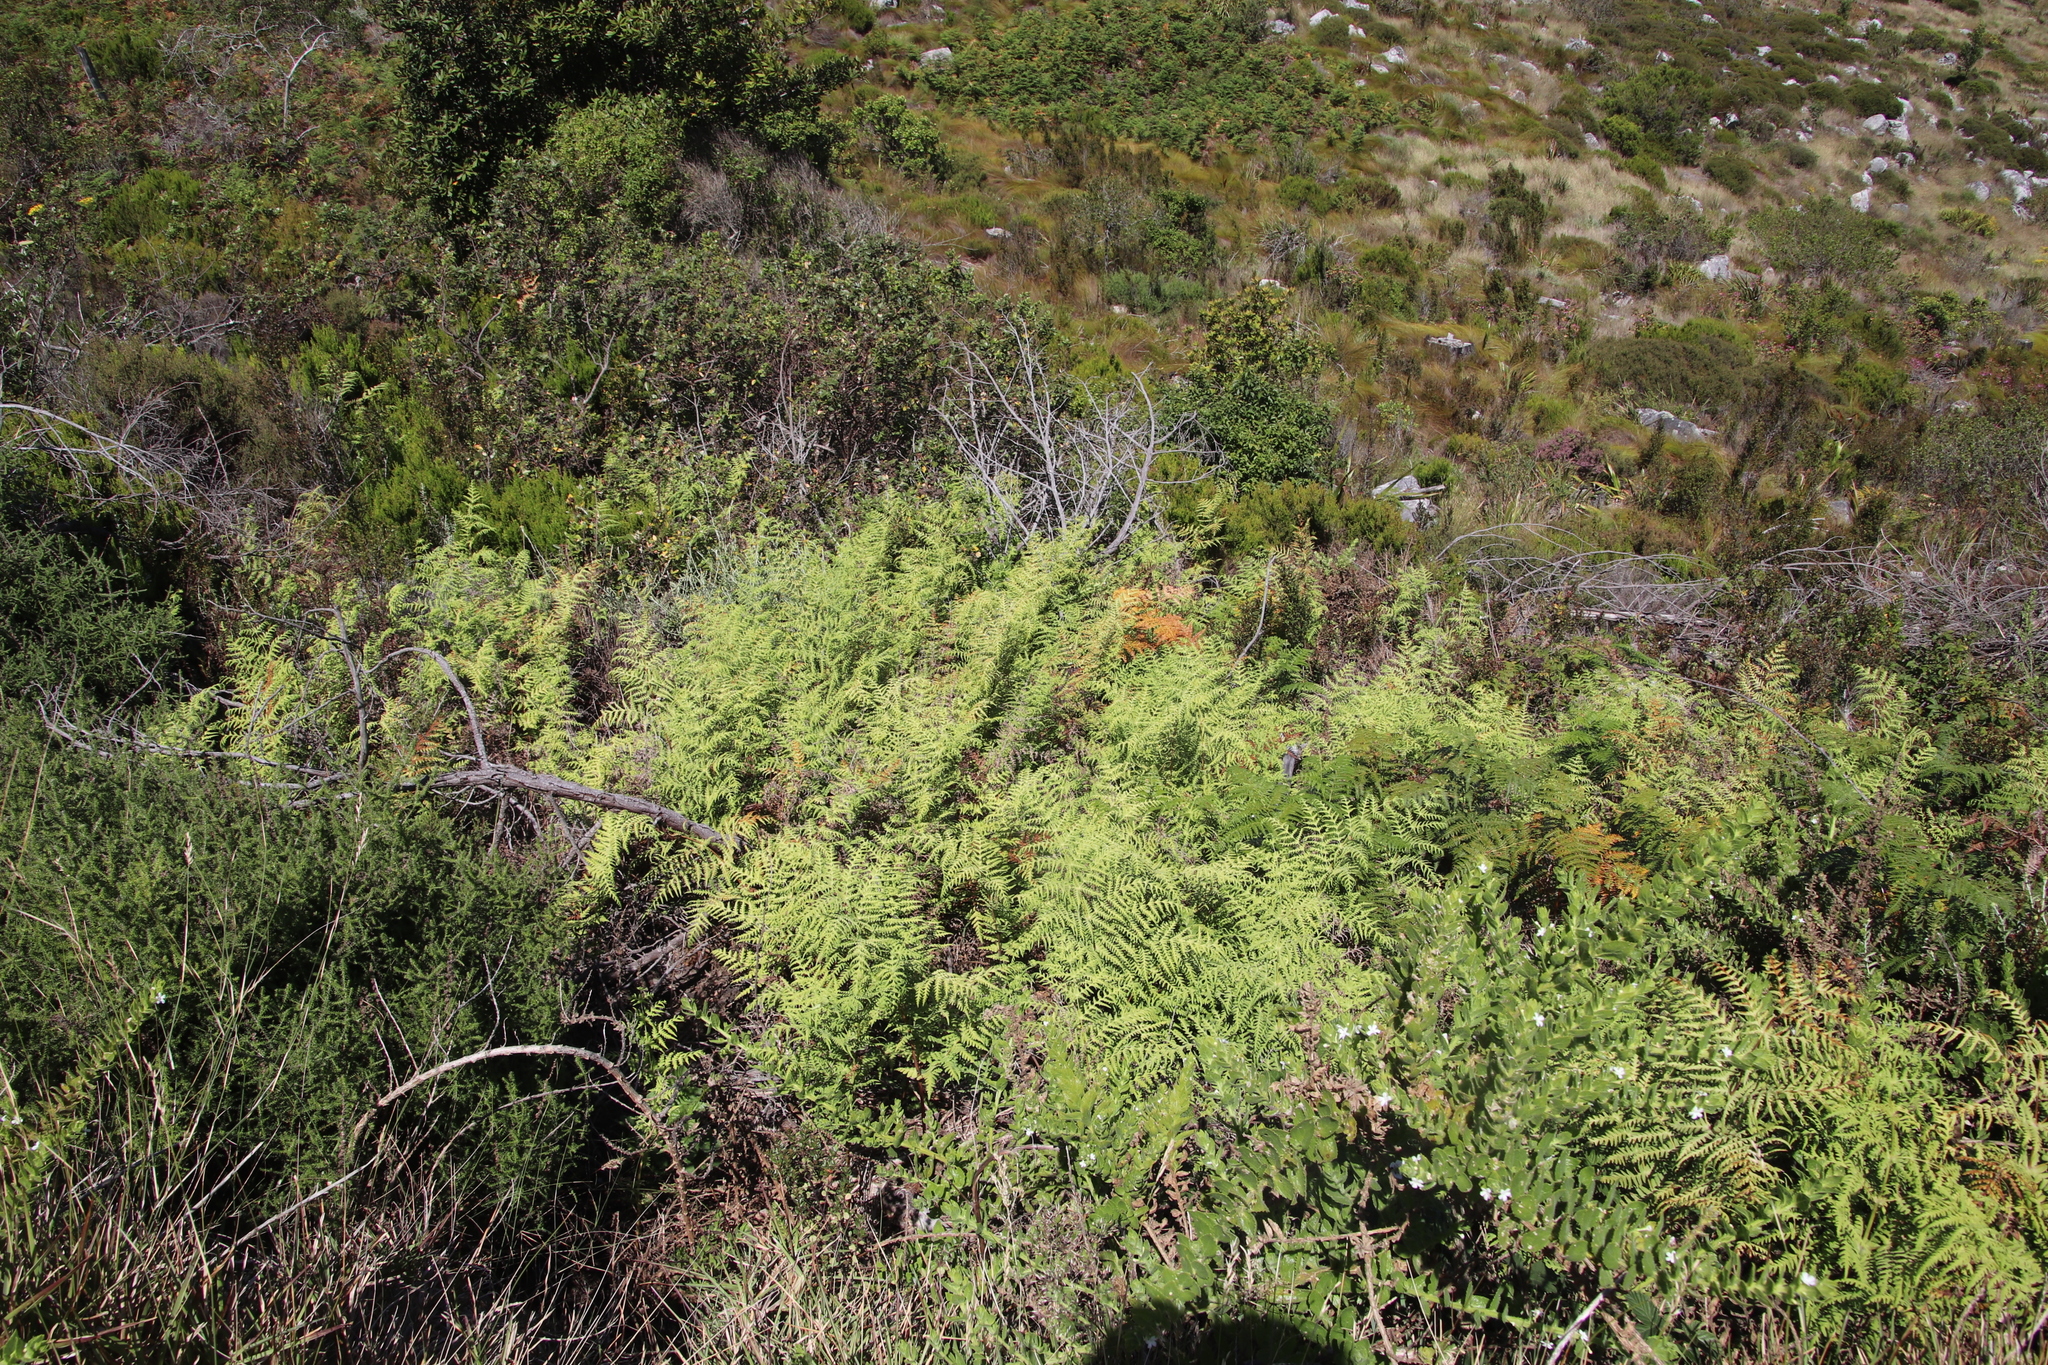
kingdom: Plantae
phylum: Tracheophyta
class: Polypodiopsida
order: Polypodiales
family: Dennstaedtiaceae
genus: Pteridium
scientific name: Pteridium aquilinum
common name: Bracken
